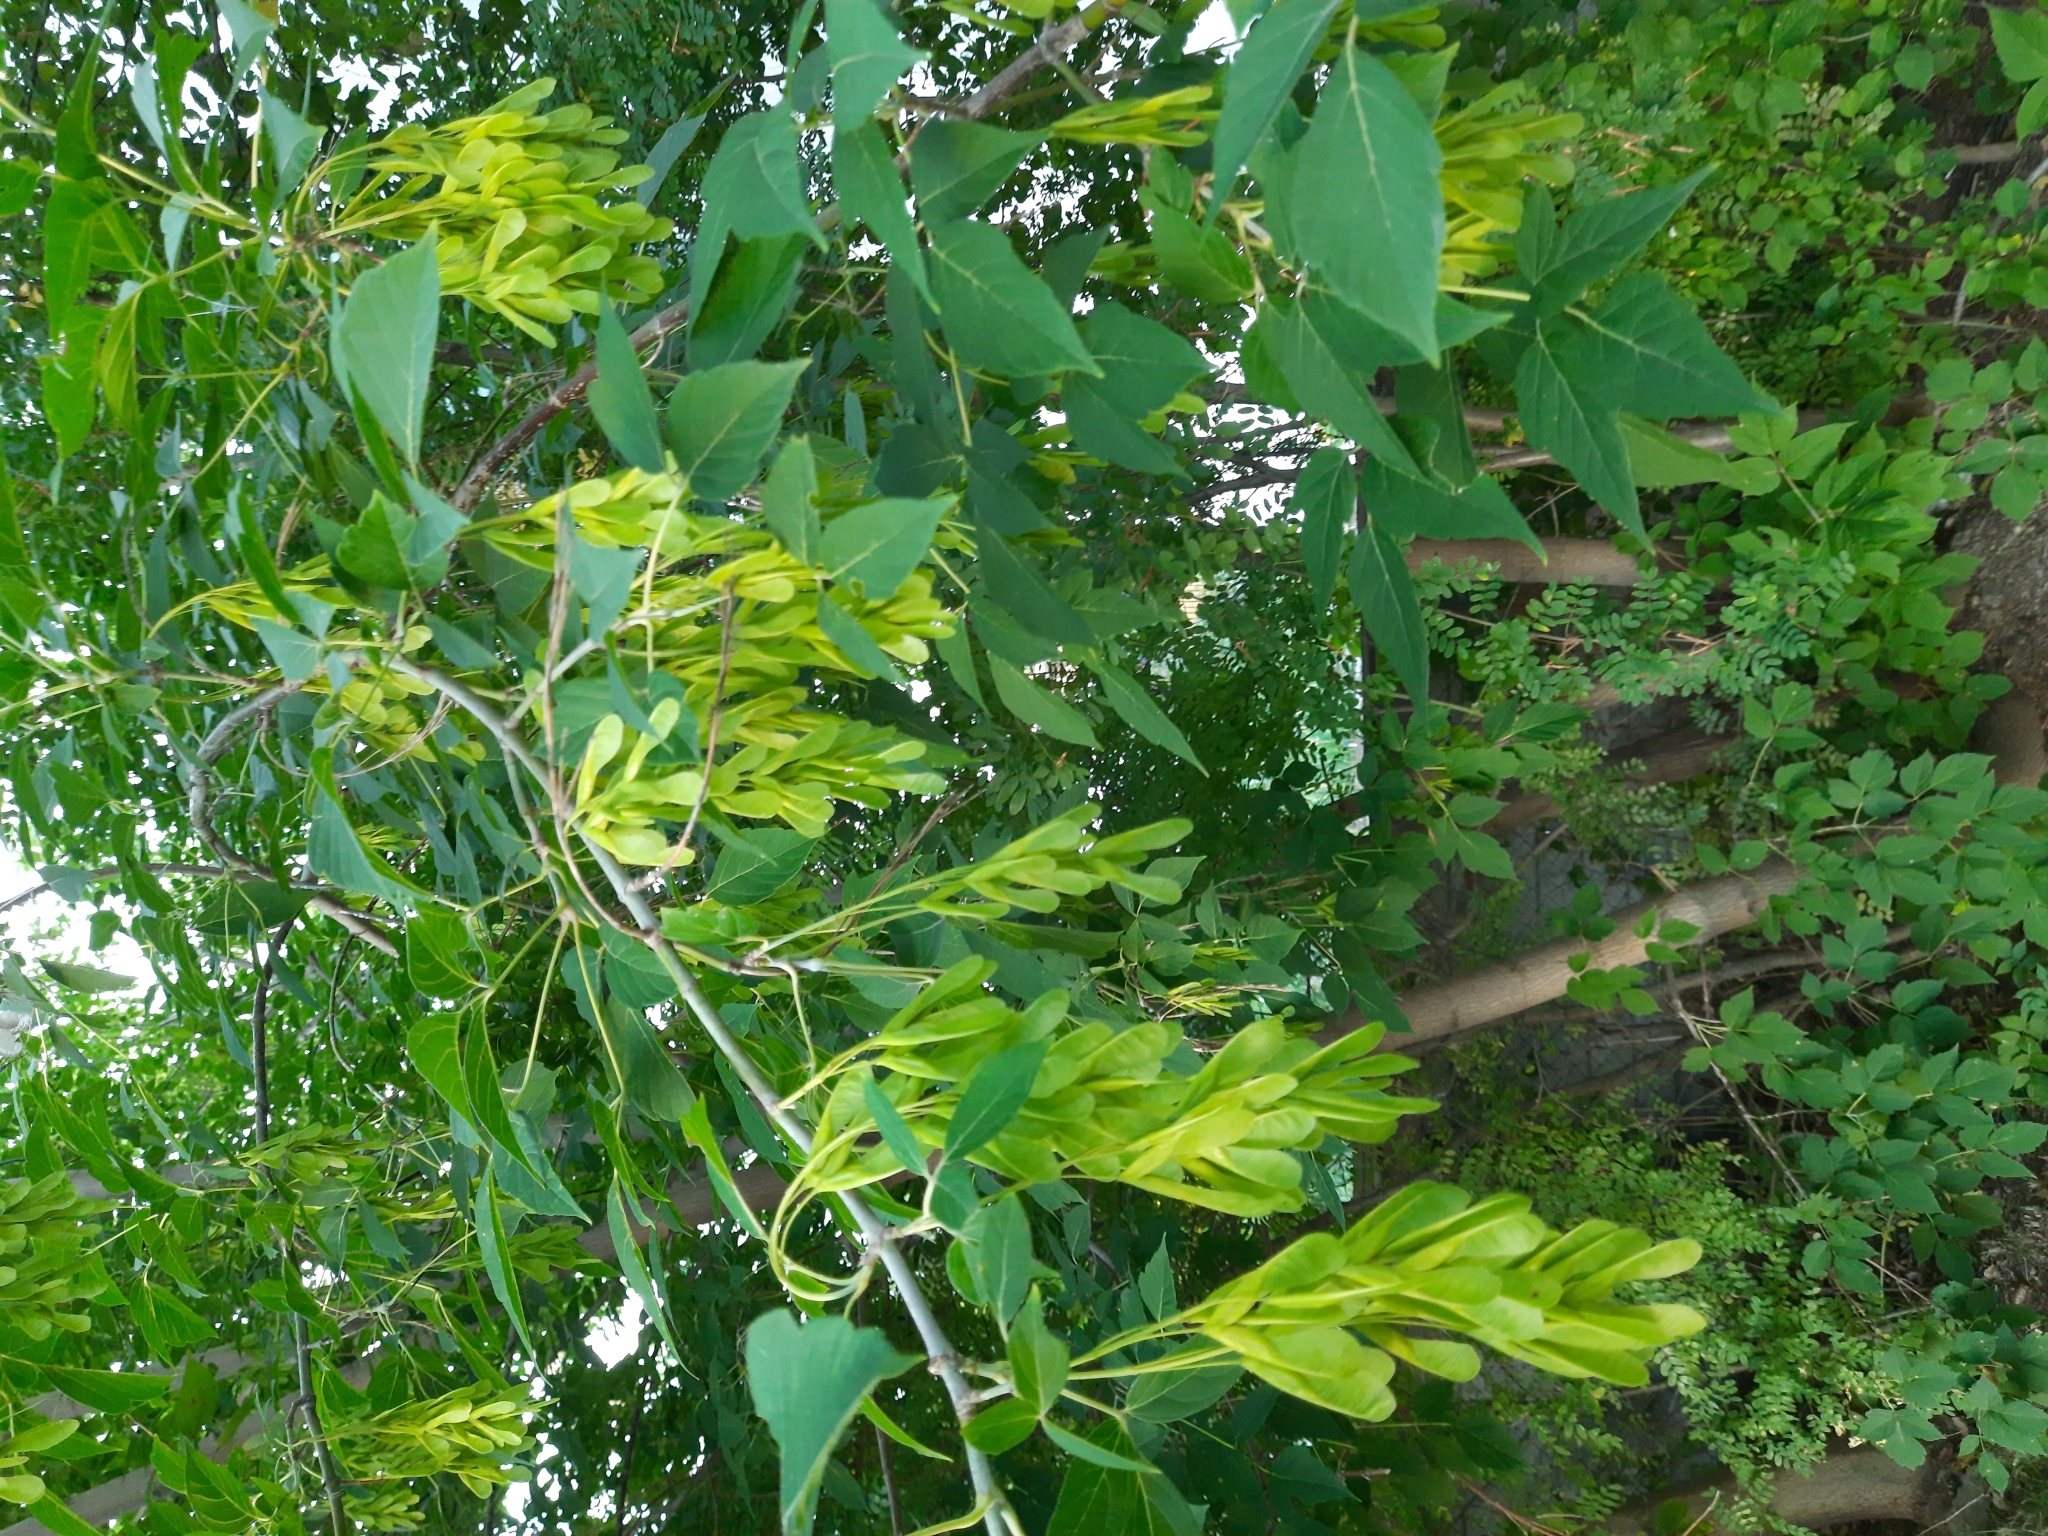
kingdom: Plantae
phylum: Tracheophyta
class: Magnoliopsida
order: Sapindales
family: Sapindaceae
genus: Acer
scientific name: Acer negundo
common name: Ashleaf maple
